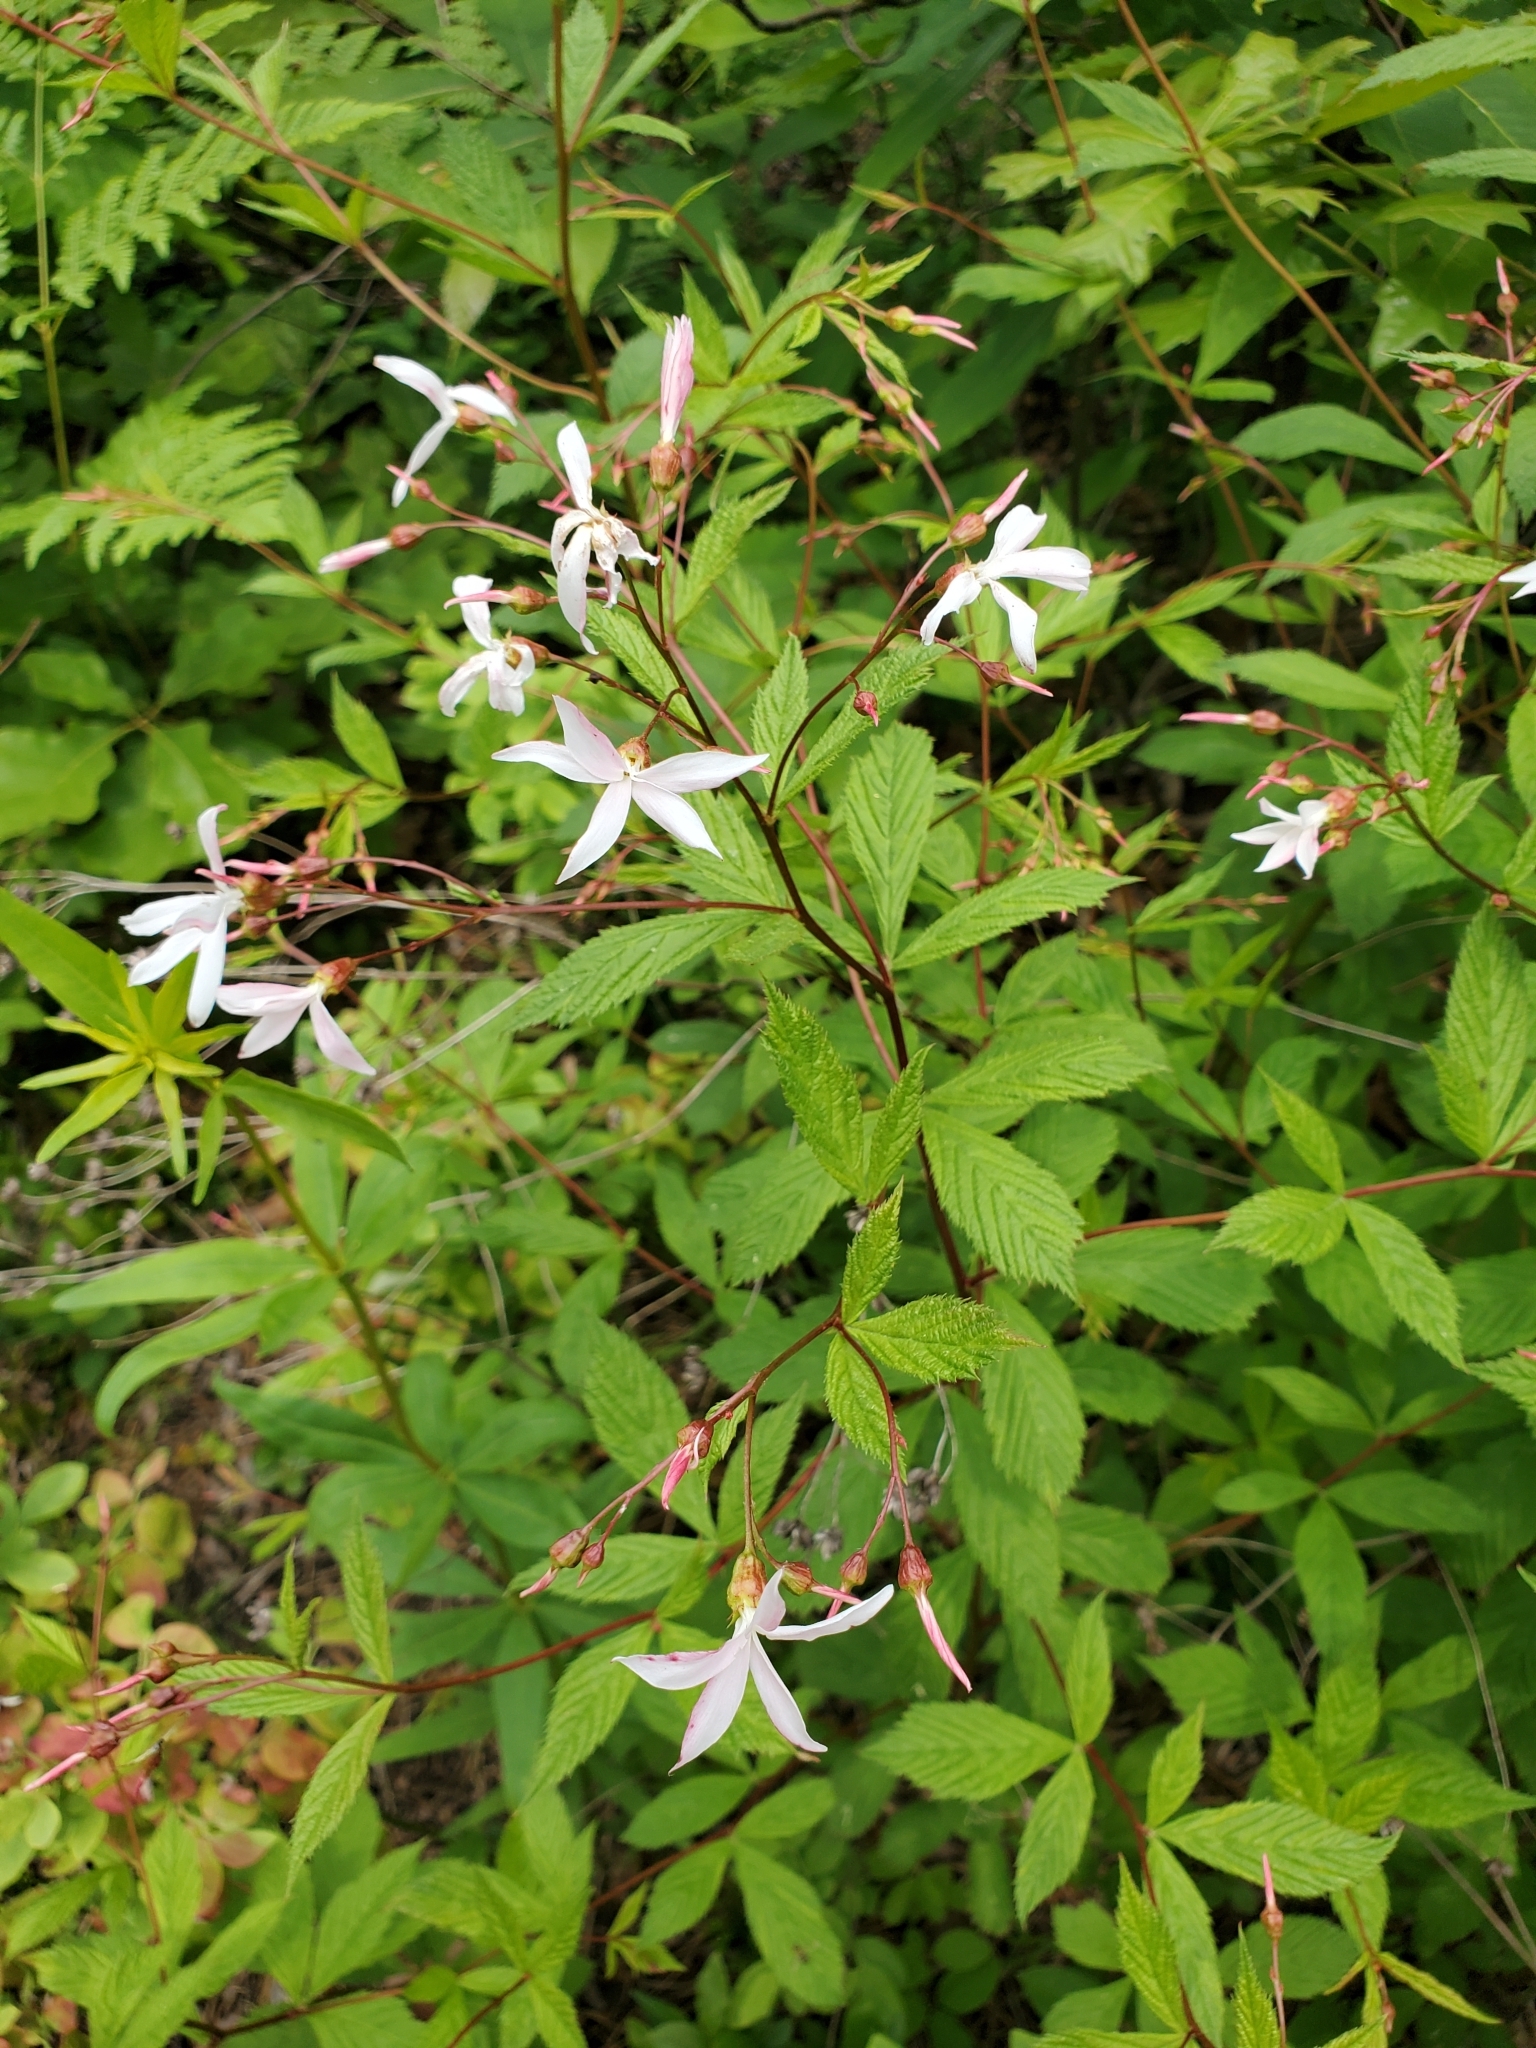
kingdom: Plantae
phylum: Tracheophyta
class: Magnoliopsida
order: Rosales
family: Rosaceae
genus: Gillenia
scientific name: Gillenia trifoliata
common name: Bowman's-root
